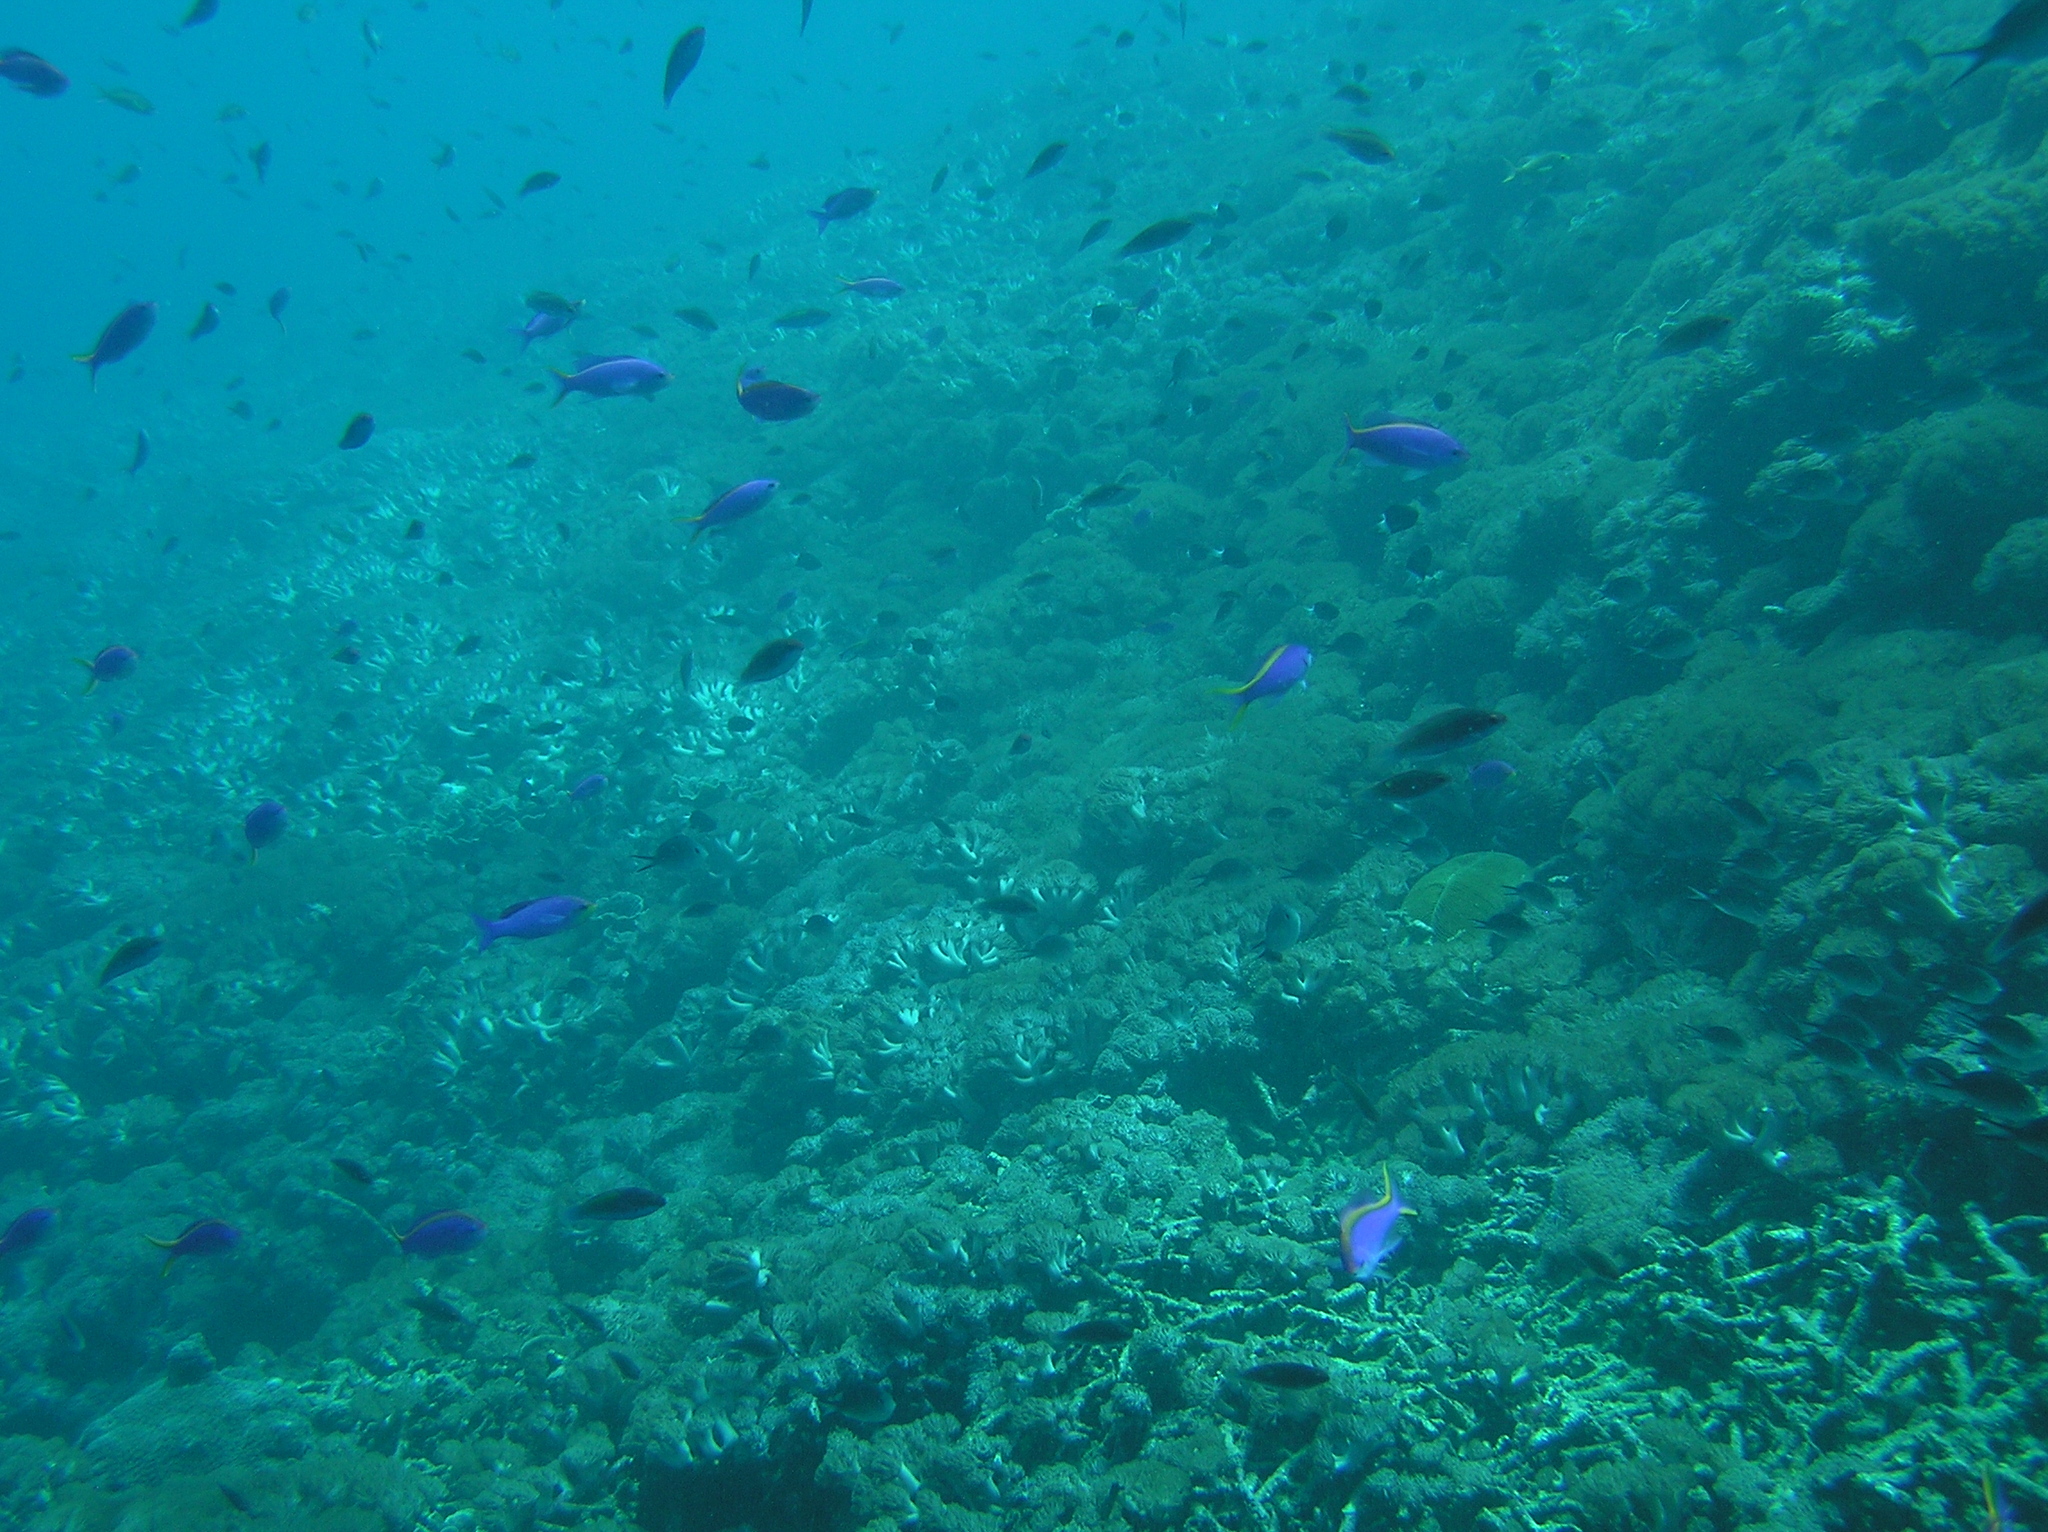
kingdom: Animalia
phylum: Chordata
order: Perciformes
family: Serranidae
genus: Pseudanthias
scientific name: Pseudanthias tuka
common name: Purple queen
